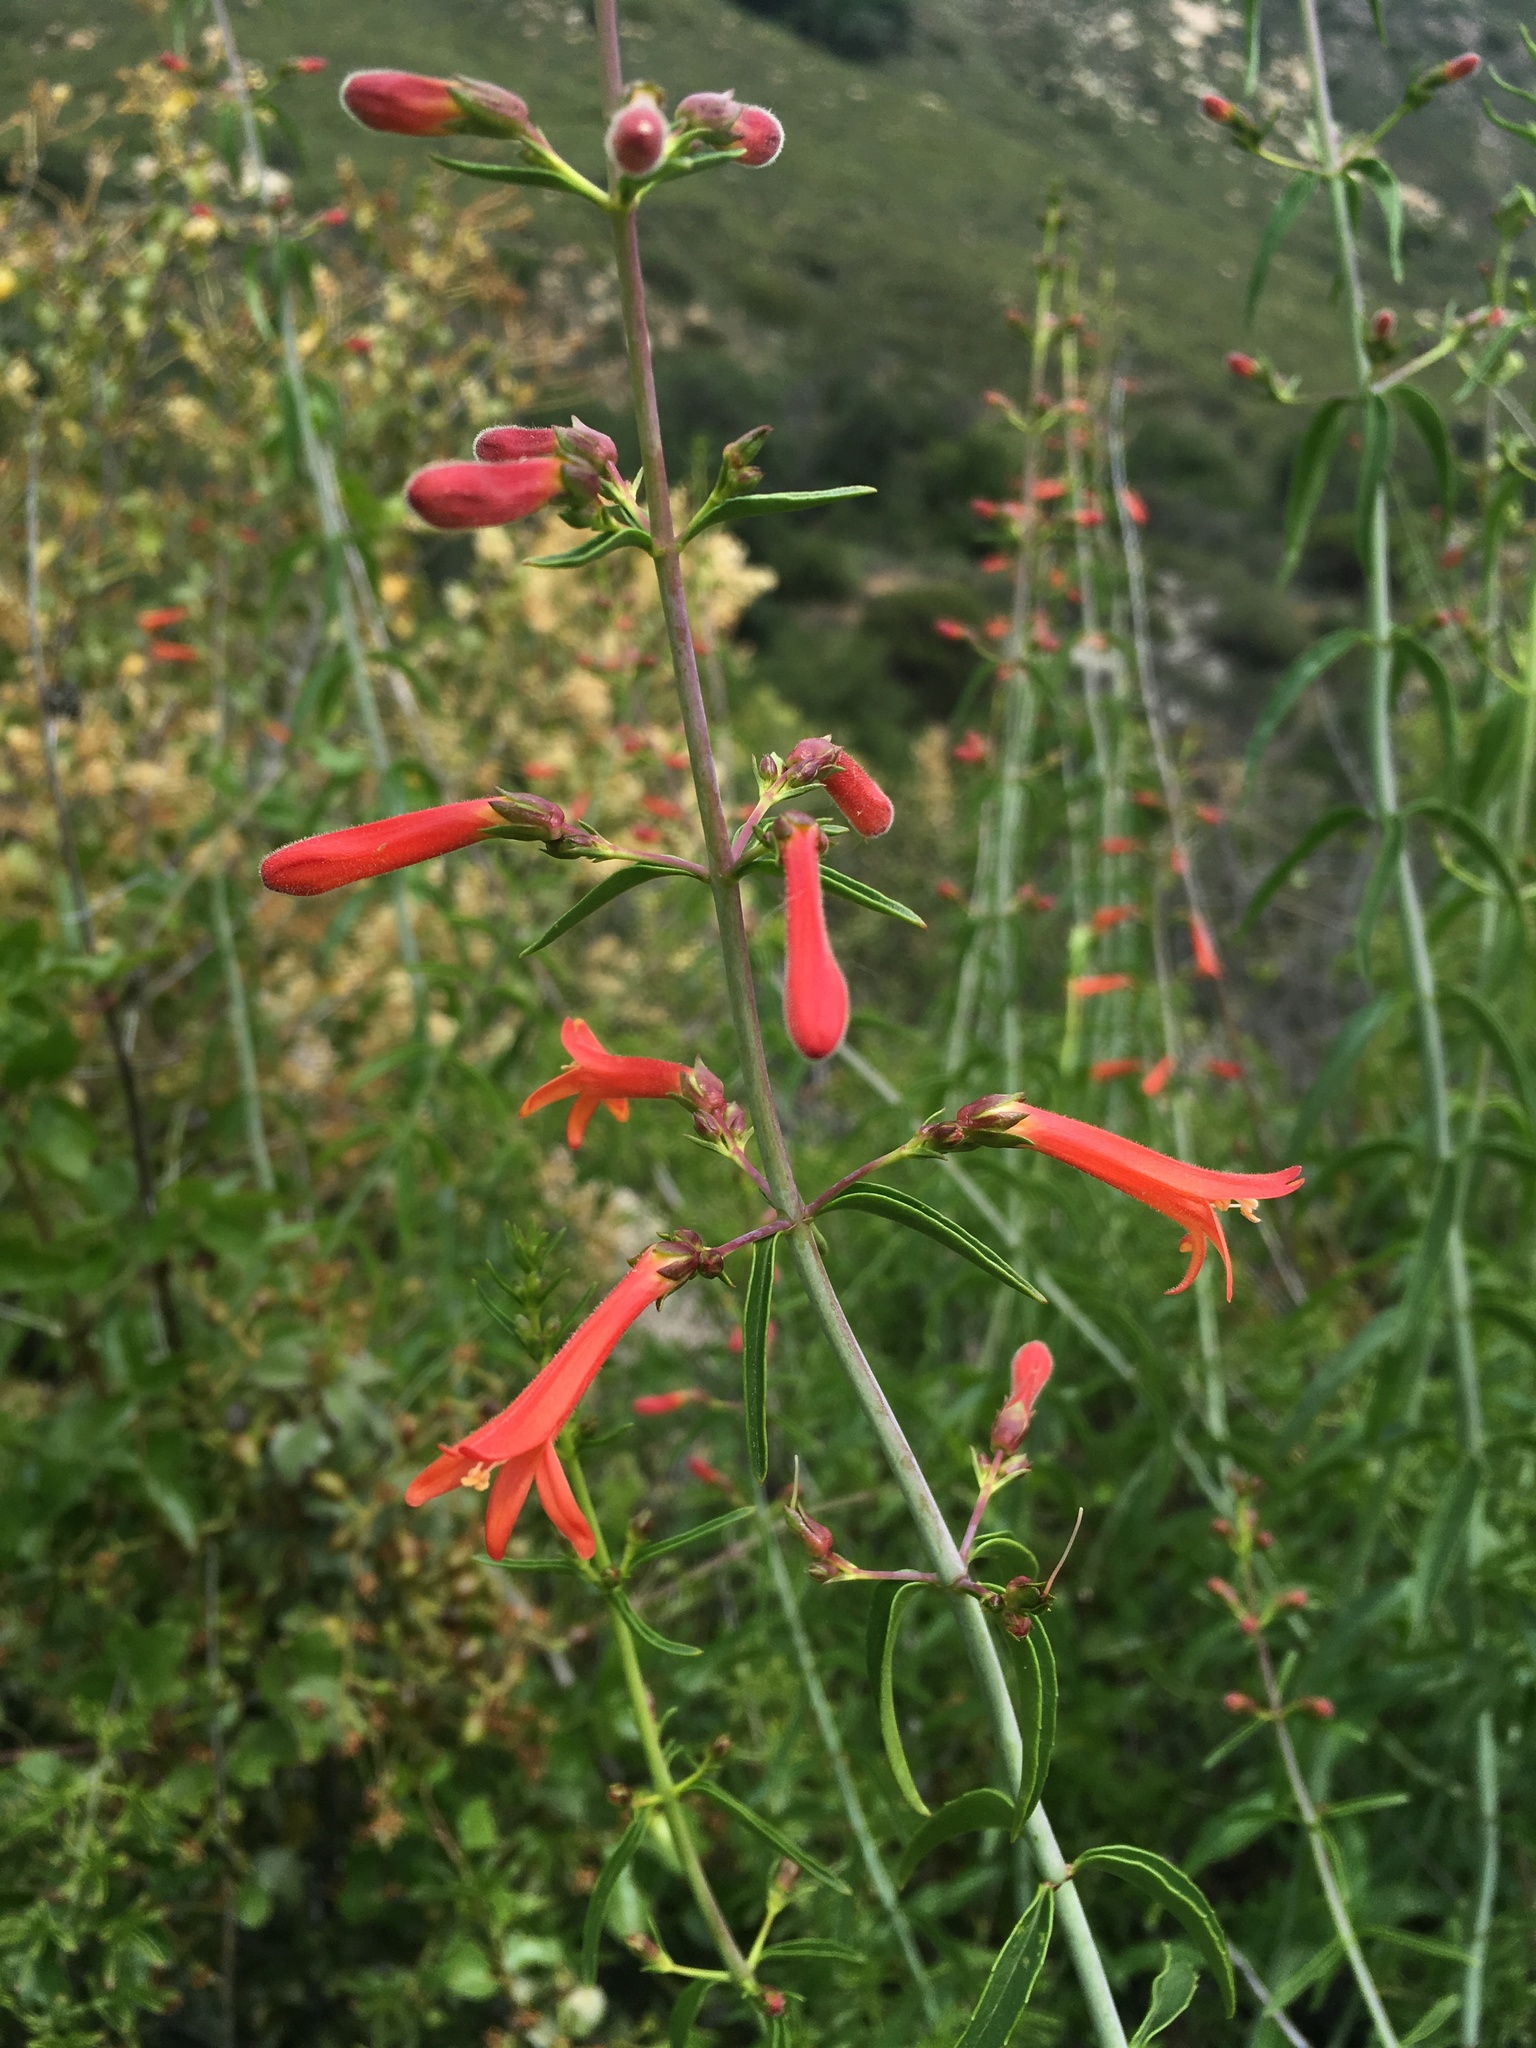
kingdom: Plantae
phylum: Tracheophyta
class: Magnoliopsida
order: Lamiales
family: Plantaginaceae
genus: Keckiella
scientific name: Keckiella ternata
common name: Scarlet keckiella
